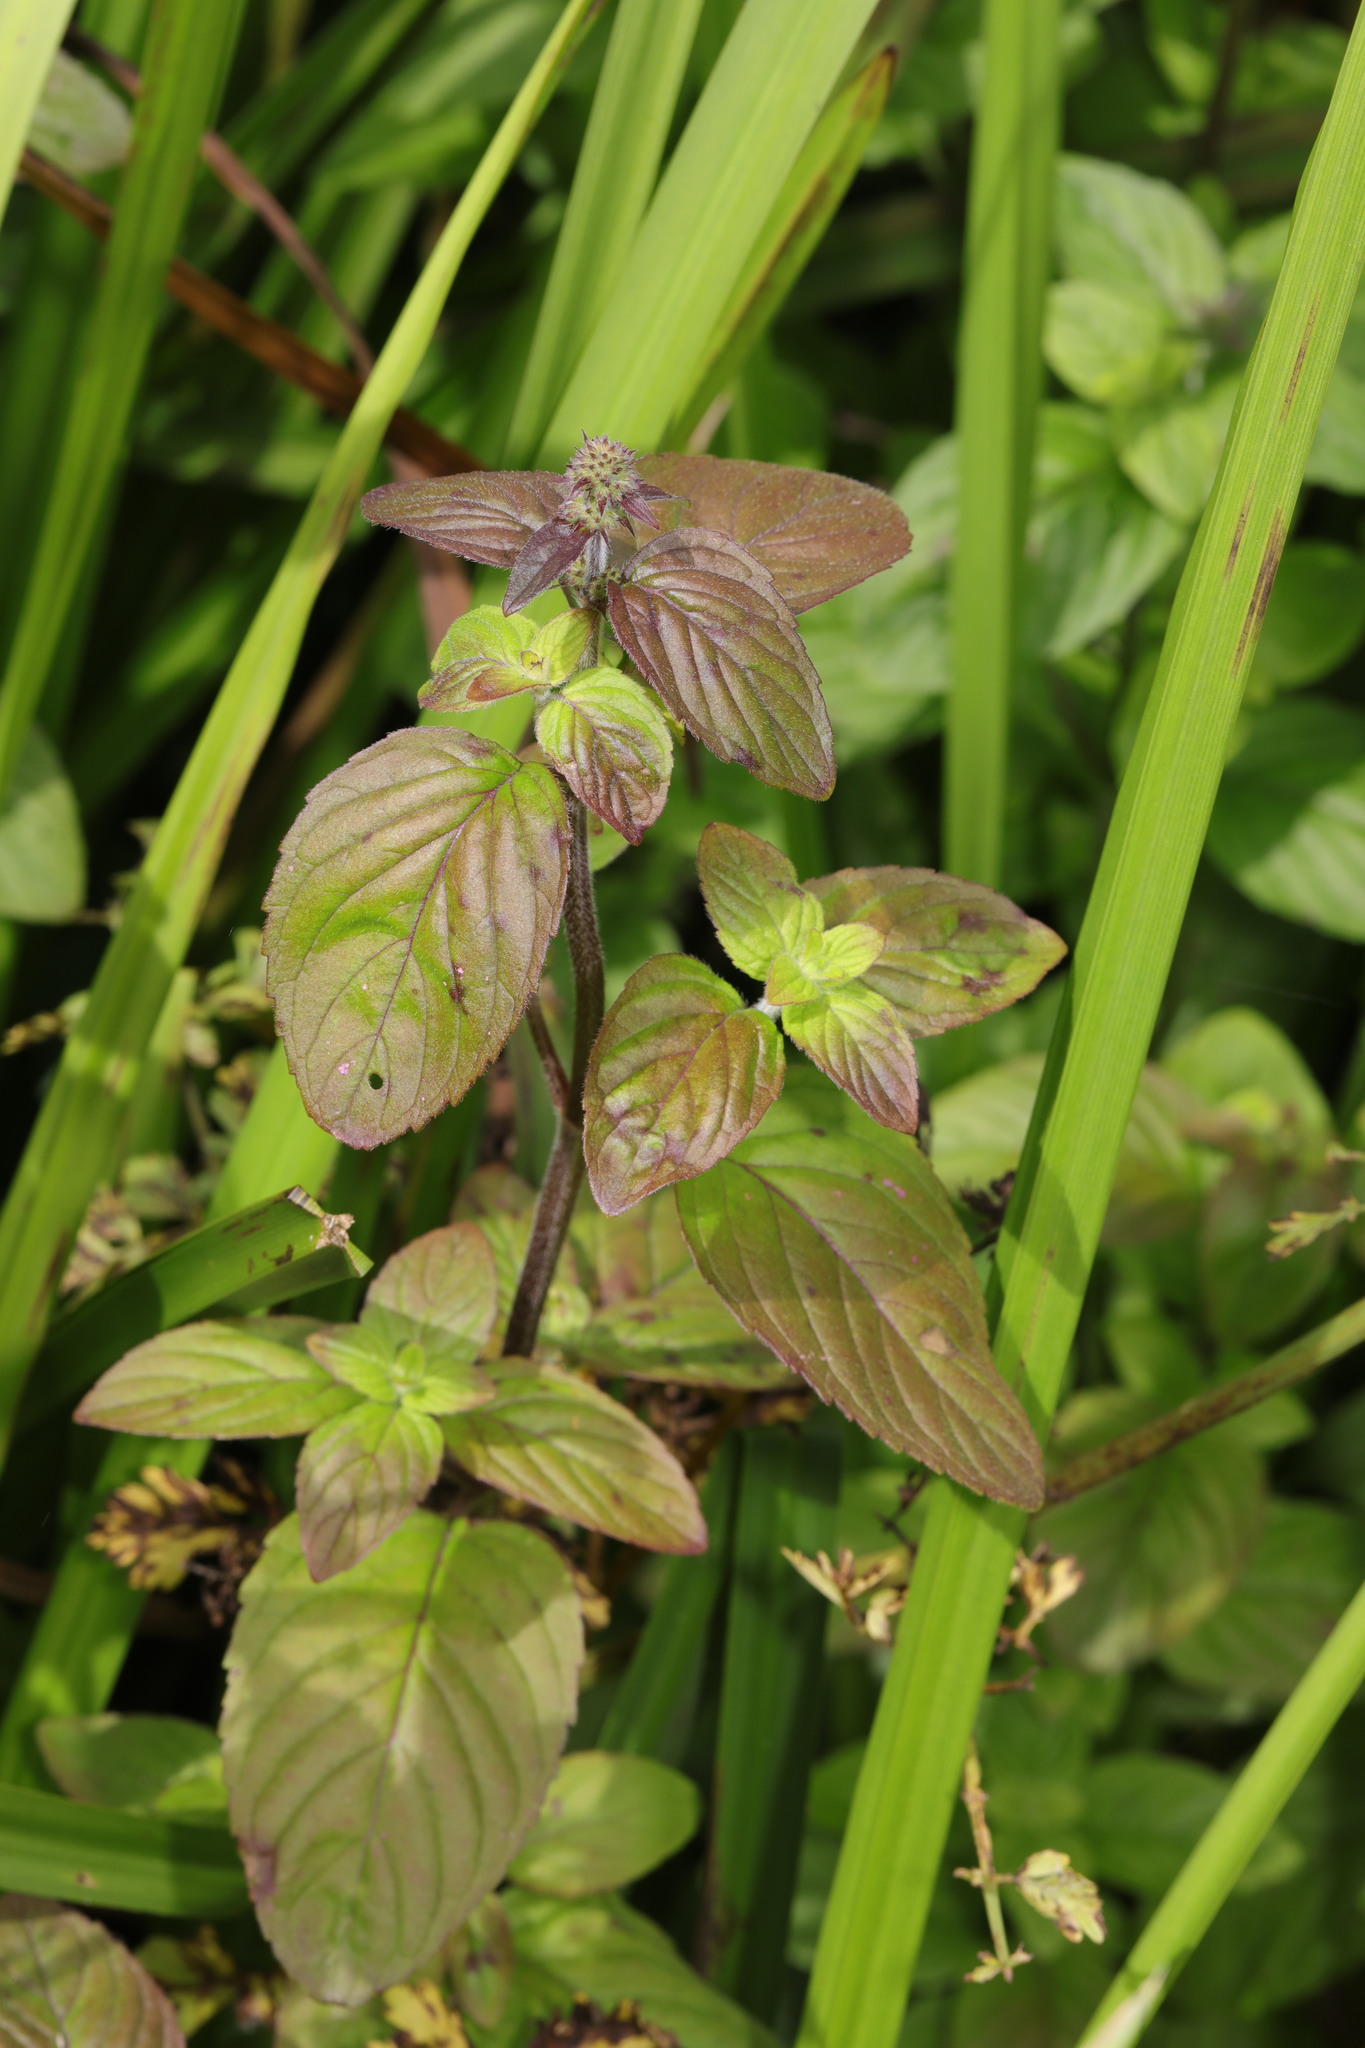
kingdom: Plantae
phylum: Tracheophyta
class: Magnoliopsida
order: Lamiales
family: Lamiaceae
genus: Mentha
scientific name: Mentha aquatica
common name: Water mint
